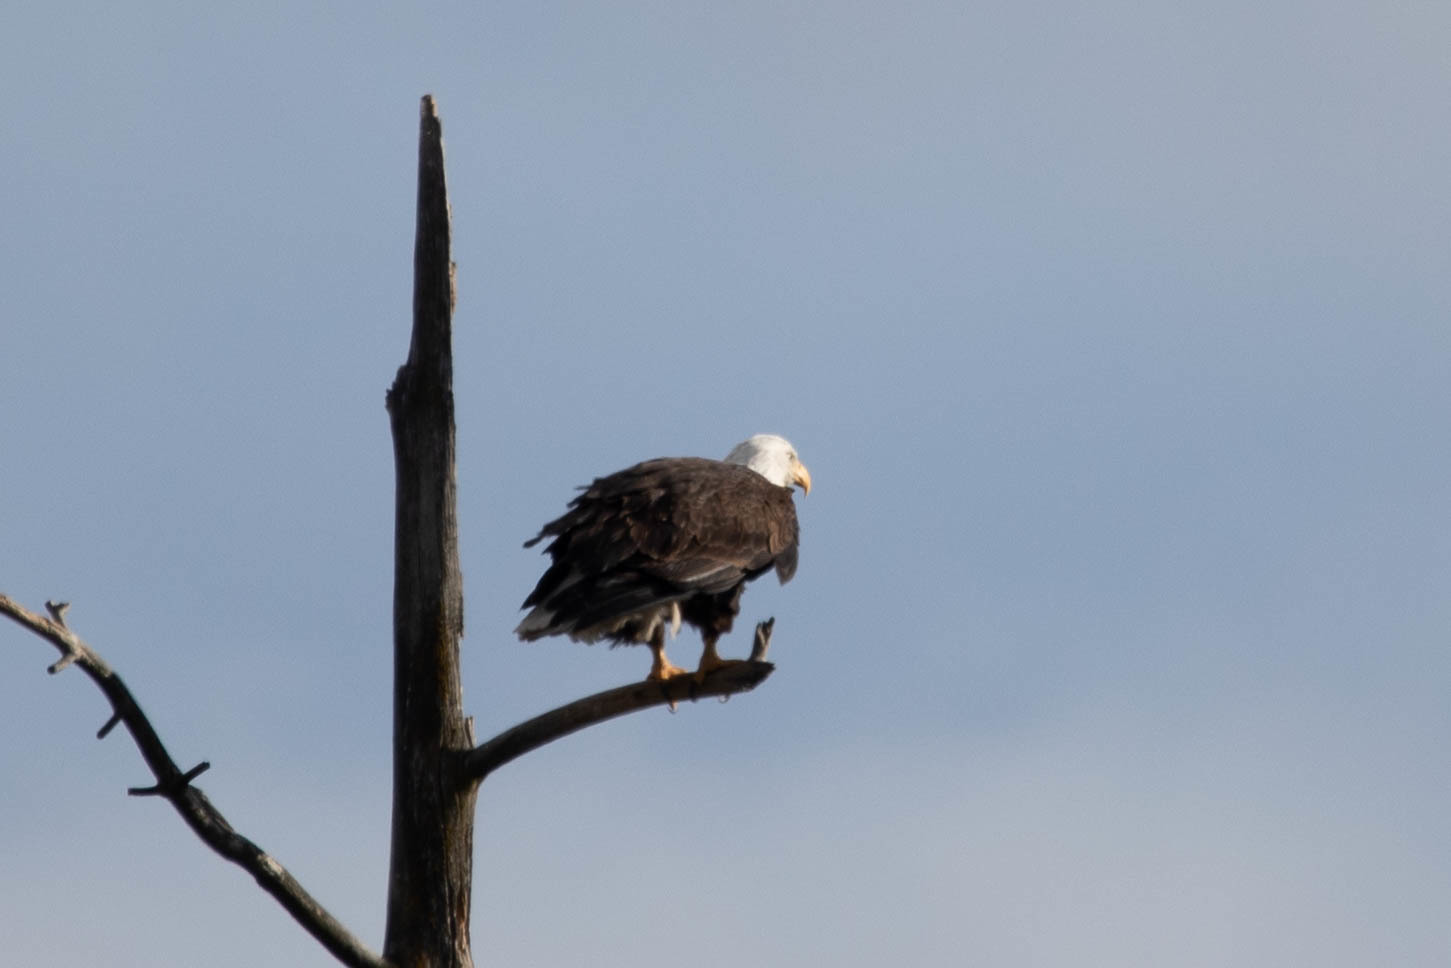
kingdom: Animalia
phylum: Chordata
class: Aves
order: Accipitriformes
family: Accipitridae
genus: Haliaeetus
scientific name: Haliaeetus leucocephalus
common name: Bald eagle
